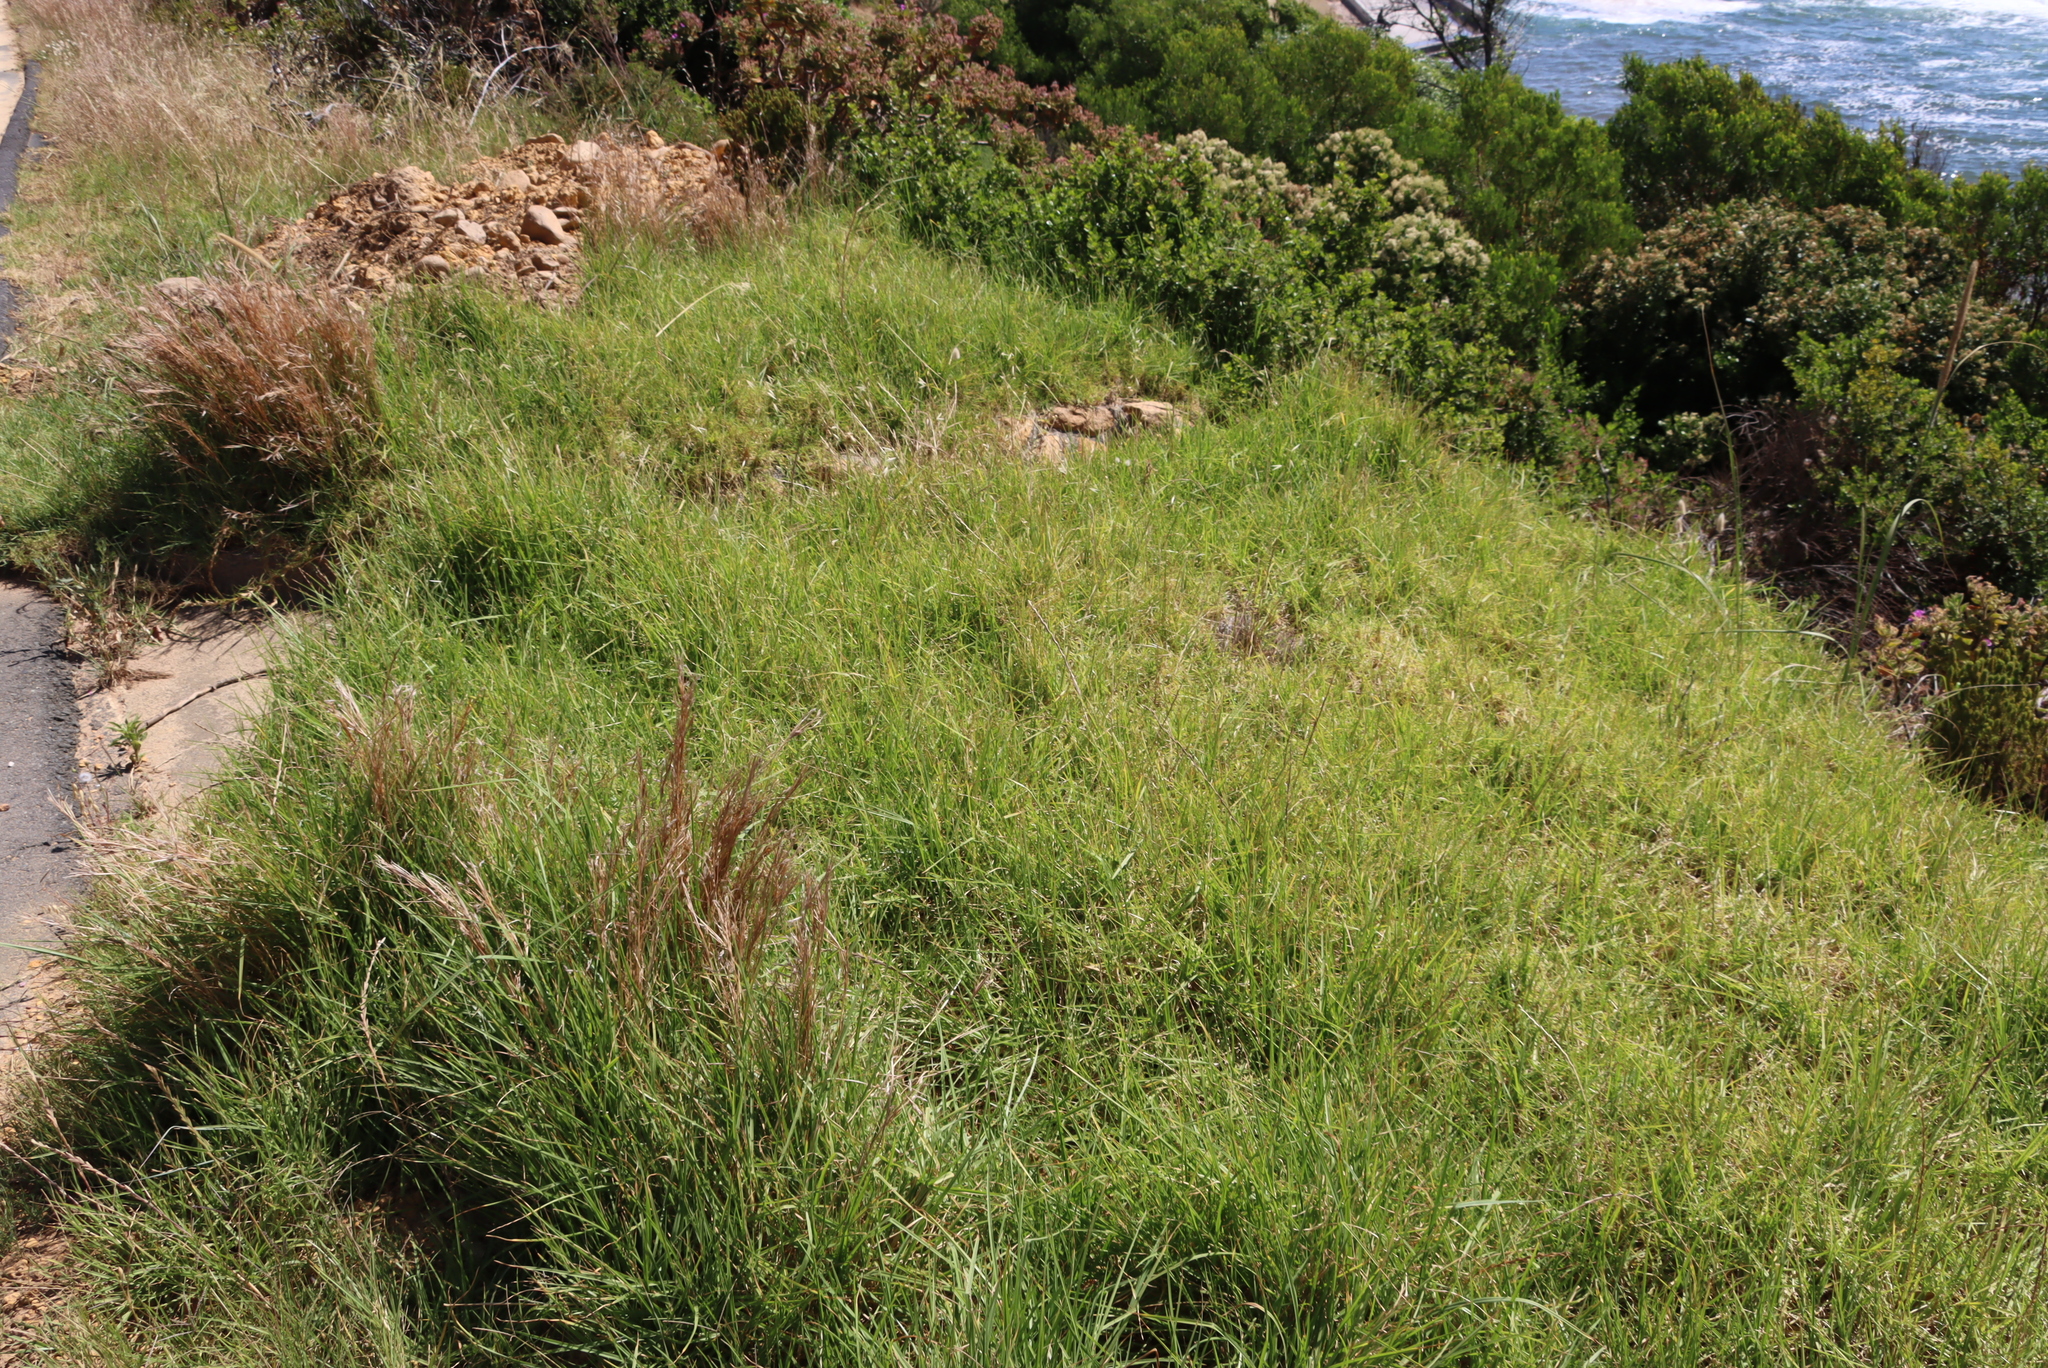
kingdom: Plantae
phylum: Tracheophyta
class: Liliopsida
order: Poales
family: Poaceae
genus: Cenchrus
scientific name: Cenchrus clandestinus
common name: Kikuyugrass
